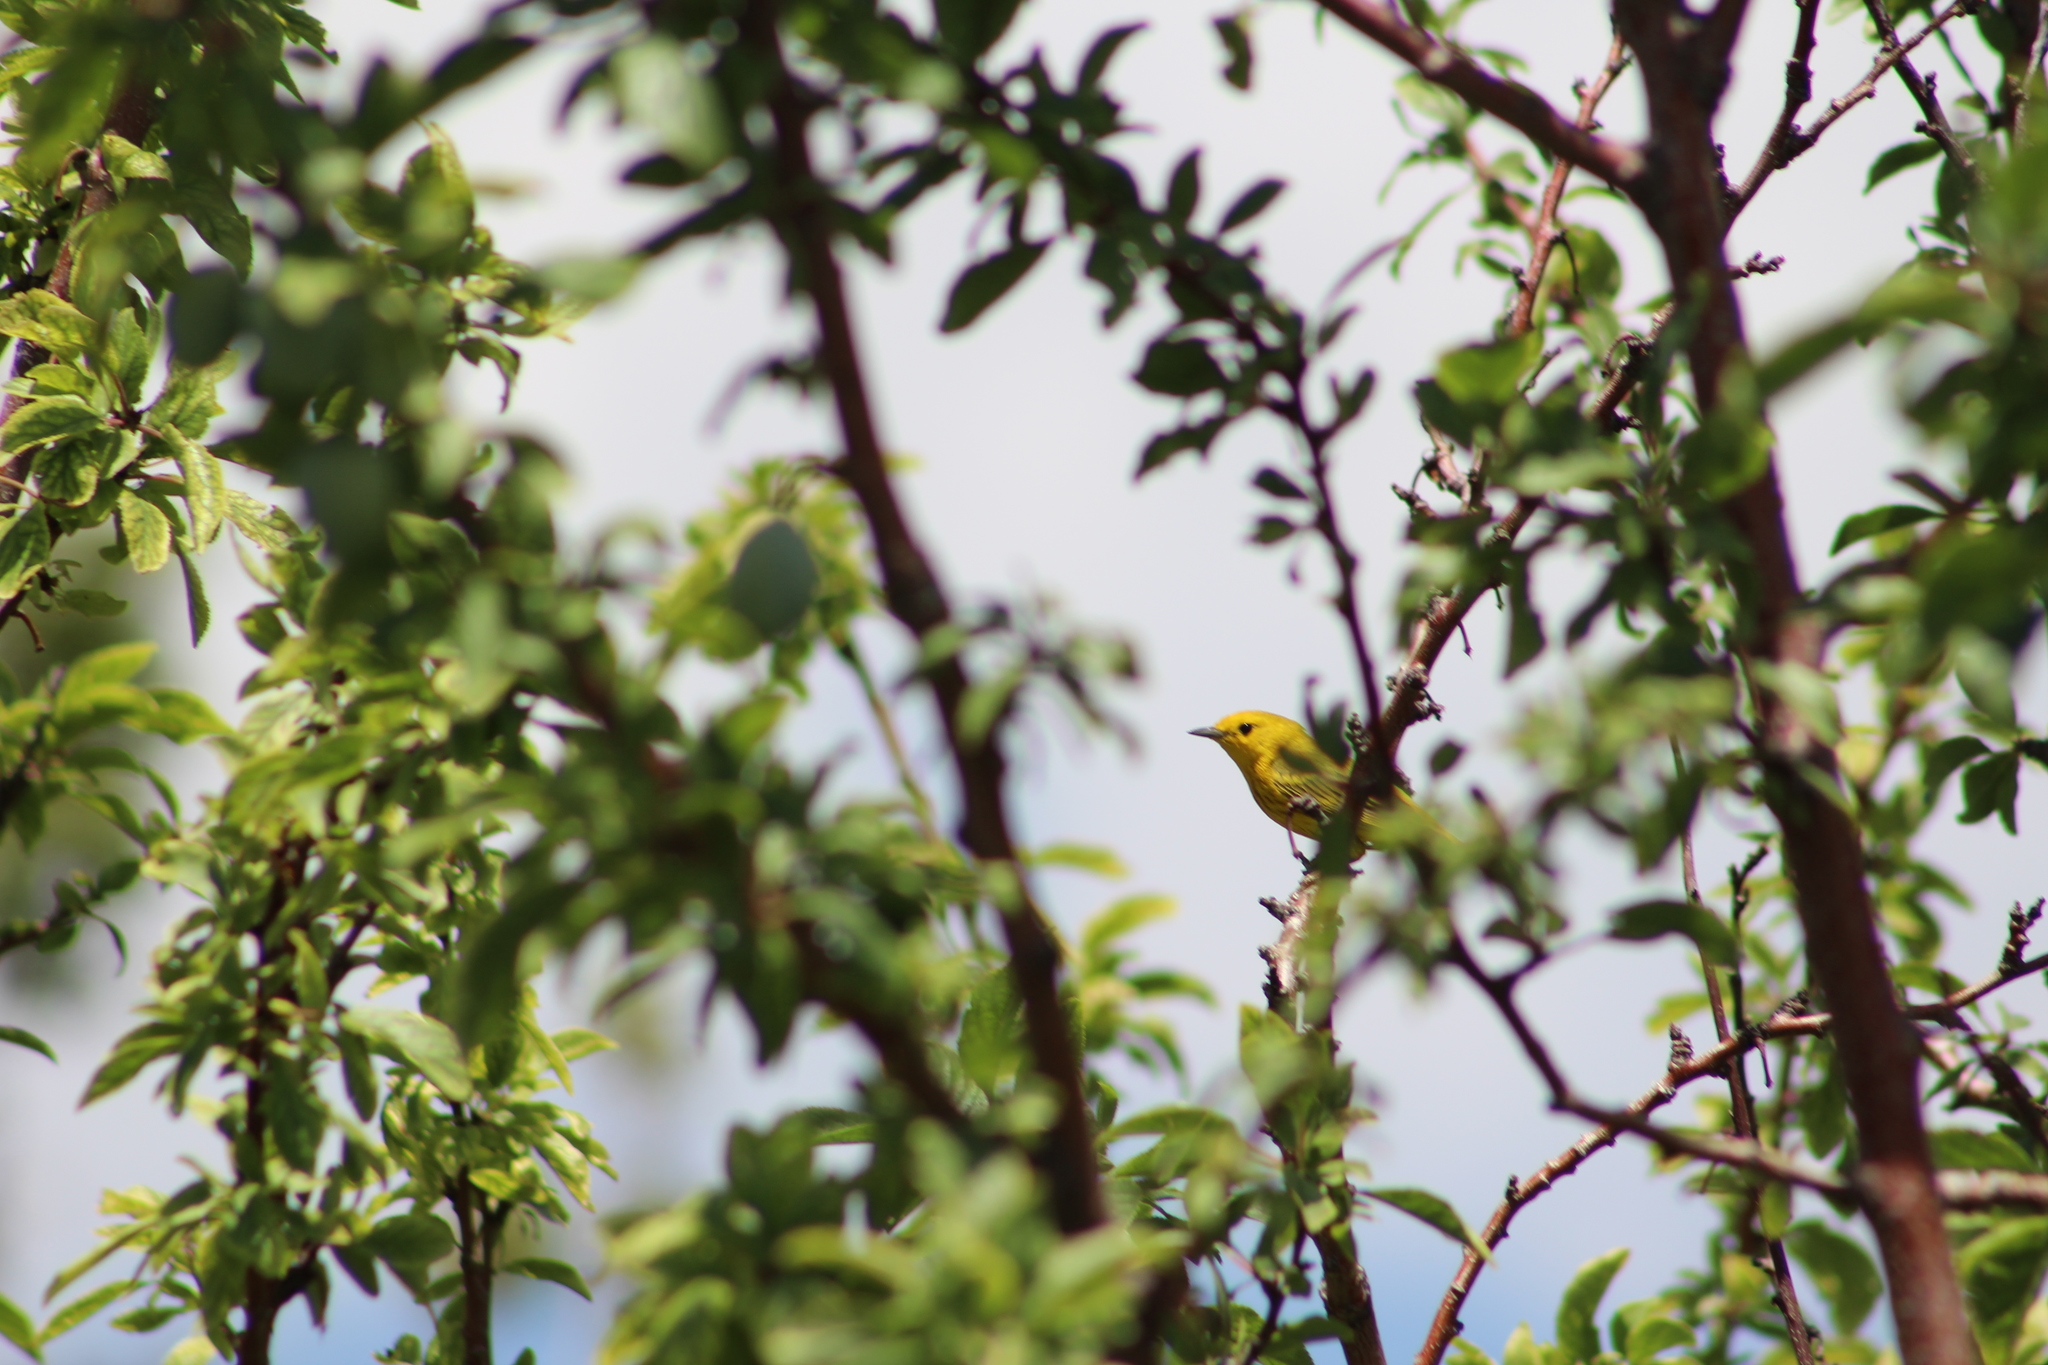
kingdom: Animalia
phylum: Chordata
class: Aves
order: Passeriformes
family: Parulidae
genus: Setophaga
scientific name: Setophaga petechia
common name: Yellow warbler
